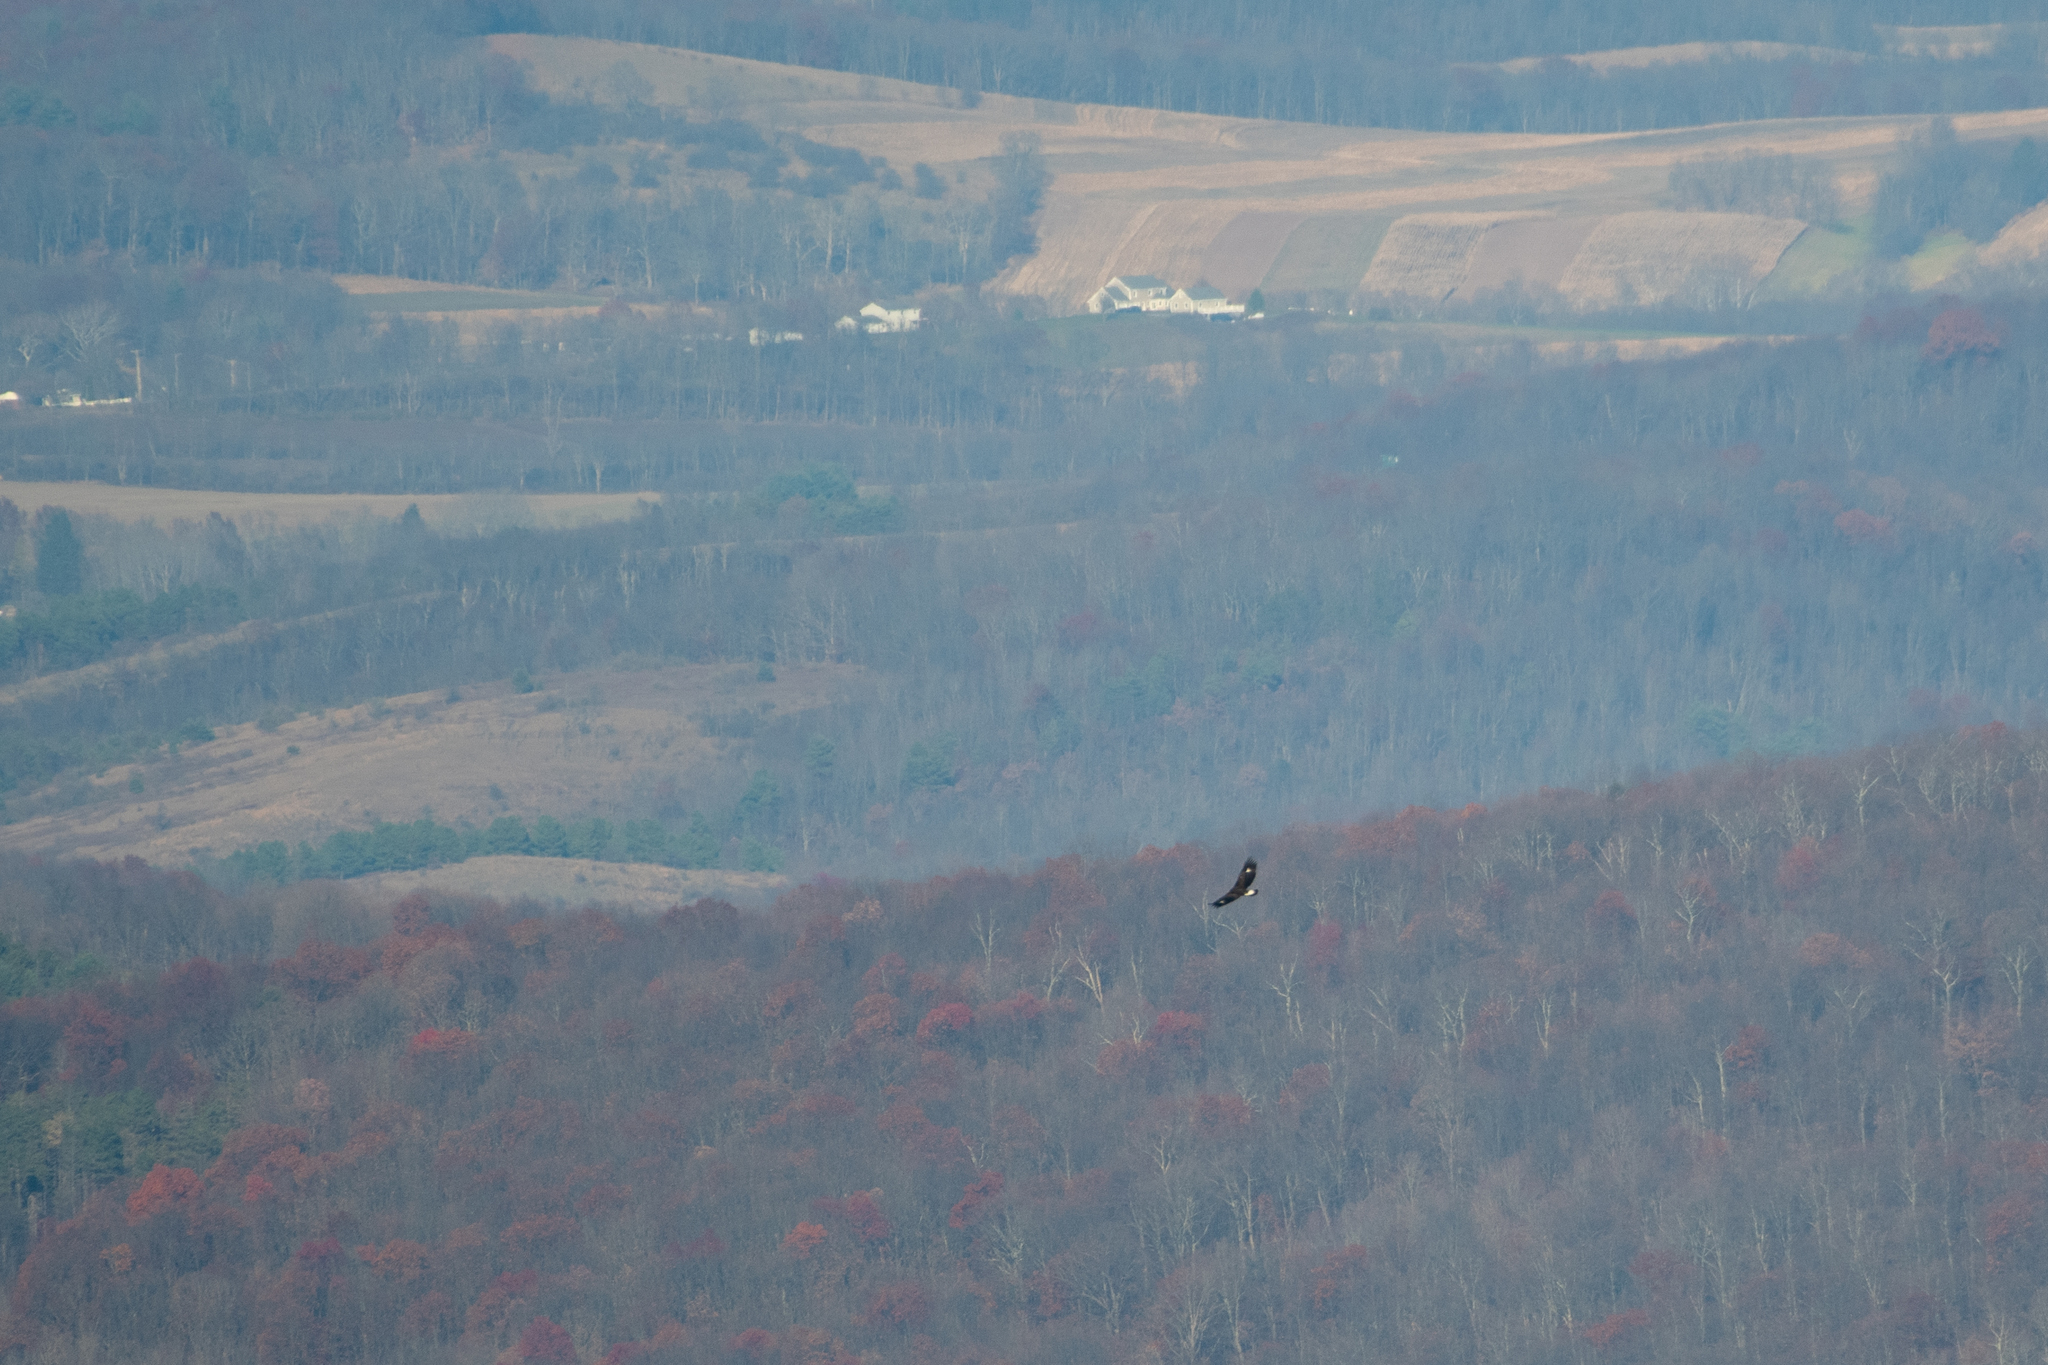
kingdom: Animalia
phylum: Chordata
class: Aves
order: Accipitriformes
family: Accipitridae
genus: Aquila
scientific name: Aquila chrysaetos
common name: Golden eagle
